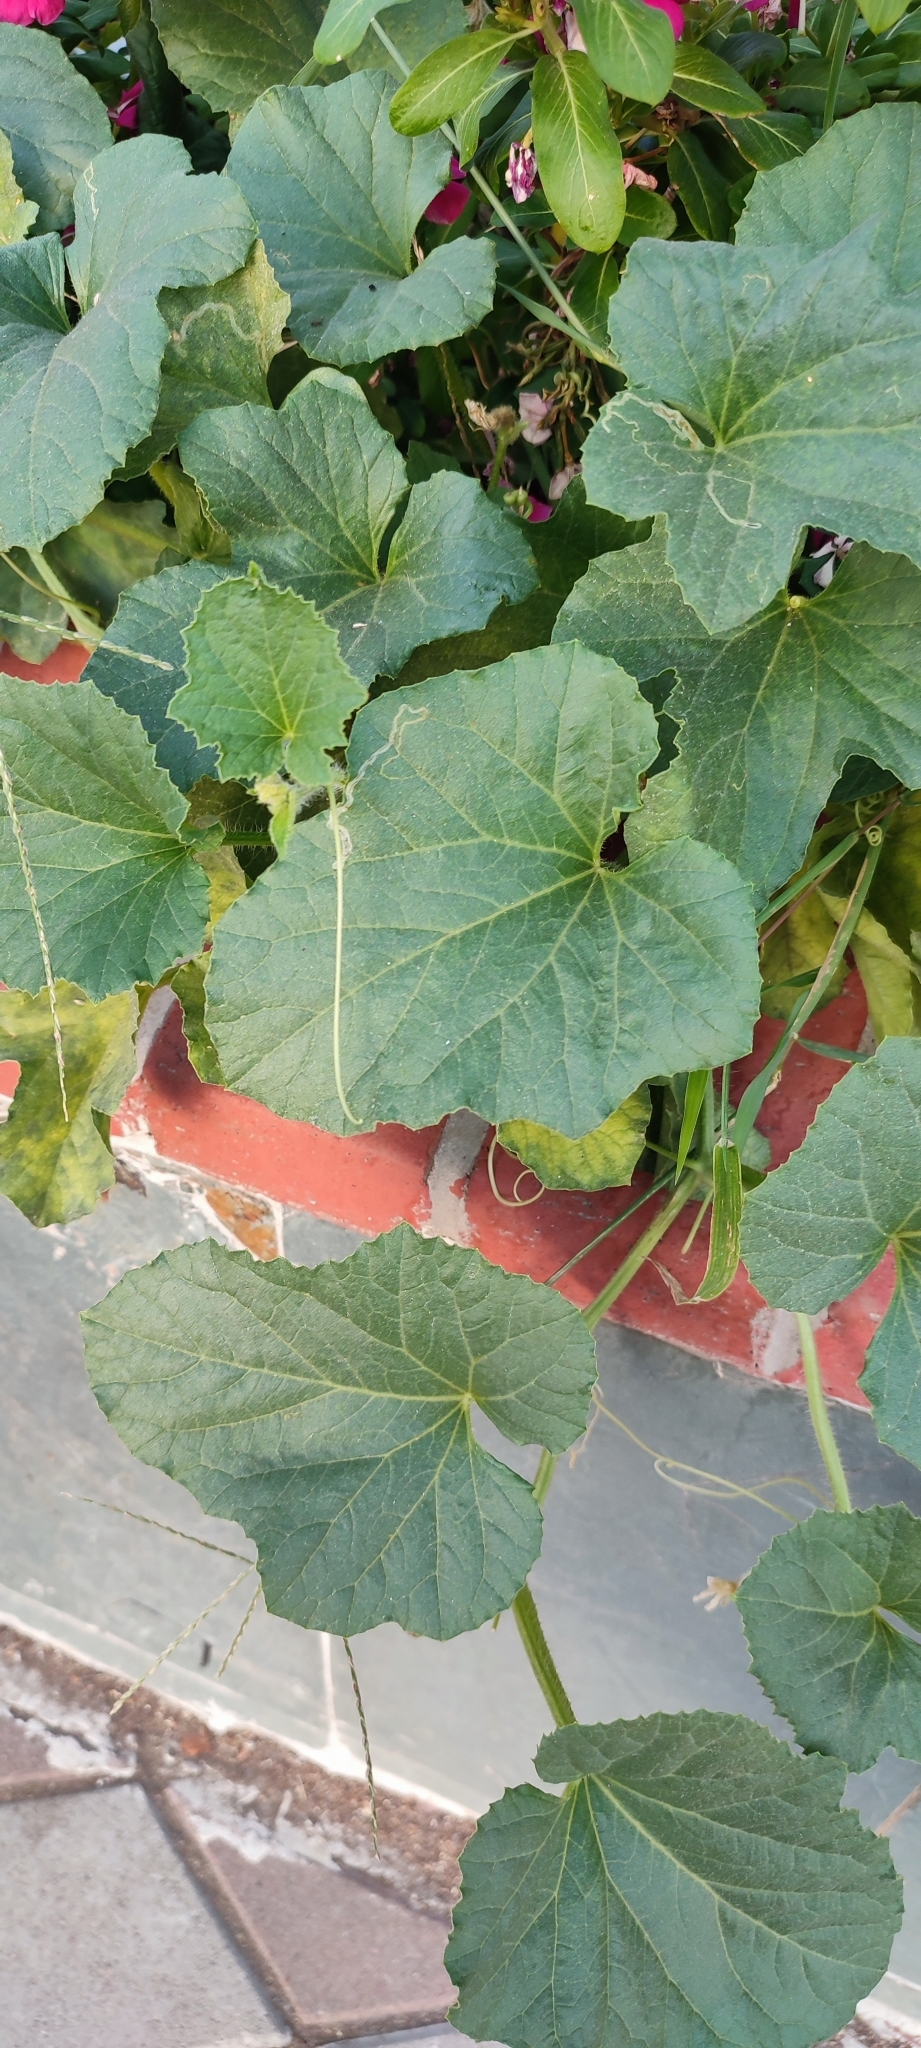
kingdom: Plantae
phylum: Tracheophyta
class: Magnoliopsida
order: Cucurbitales
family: Cucurbitaceae
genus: Cucumis
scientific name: Cucumis melo
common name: Melon
